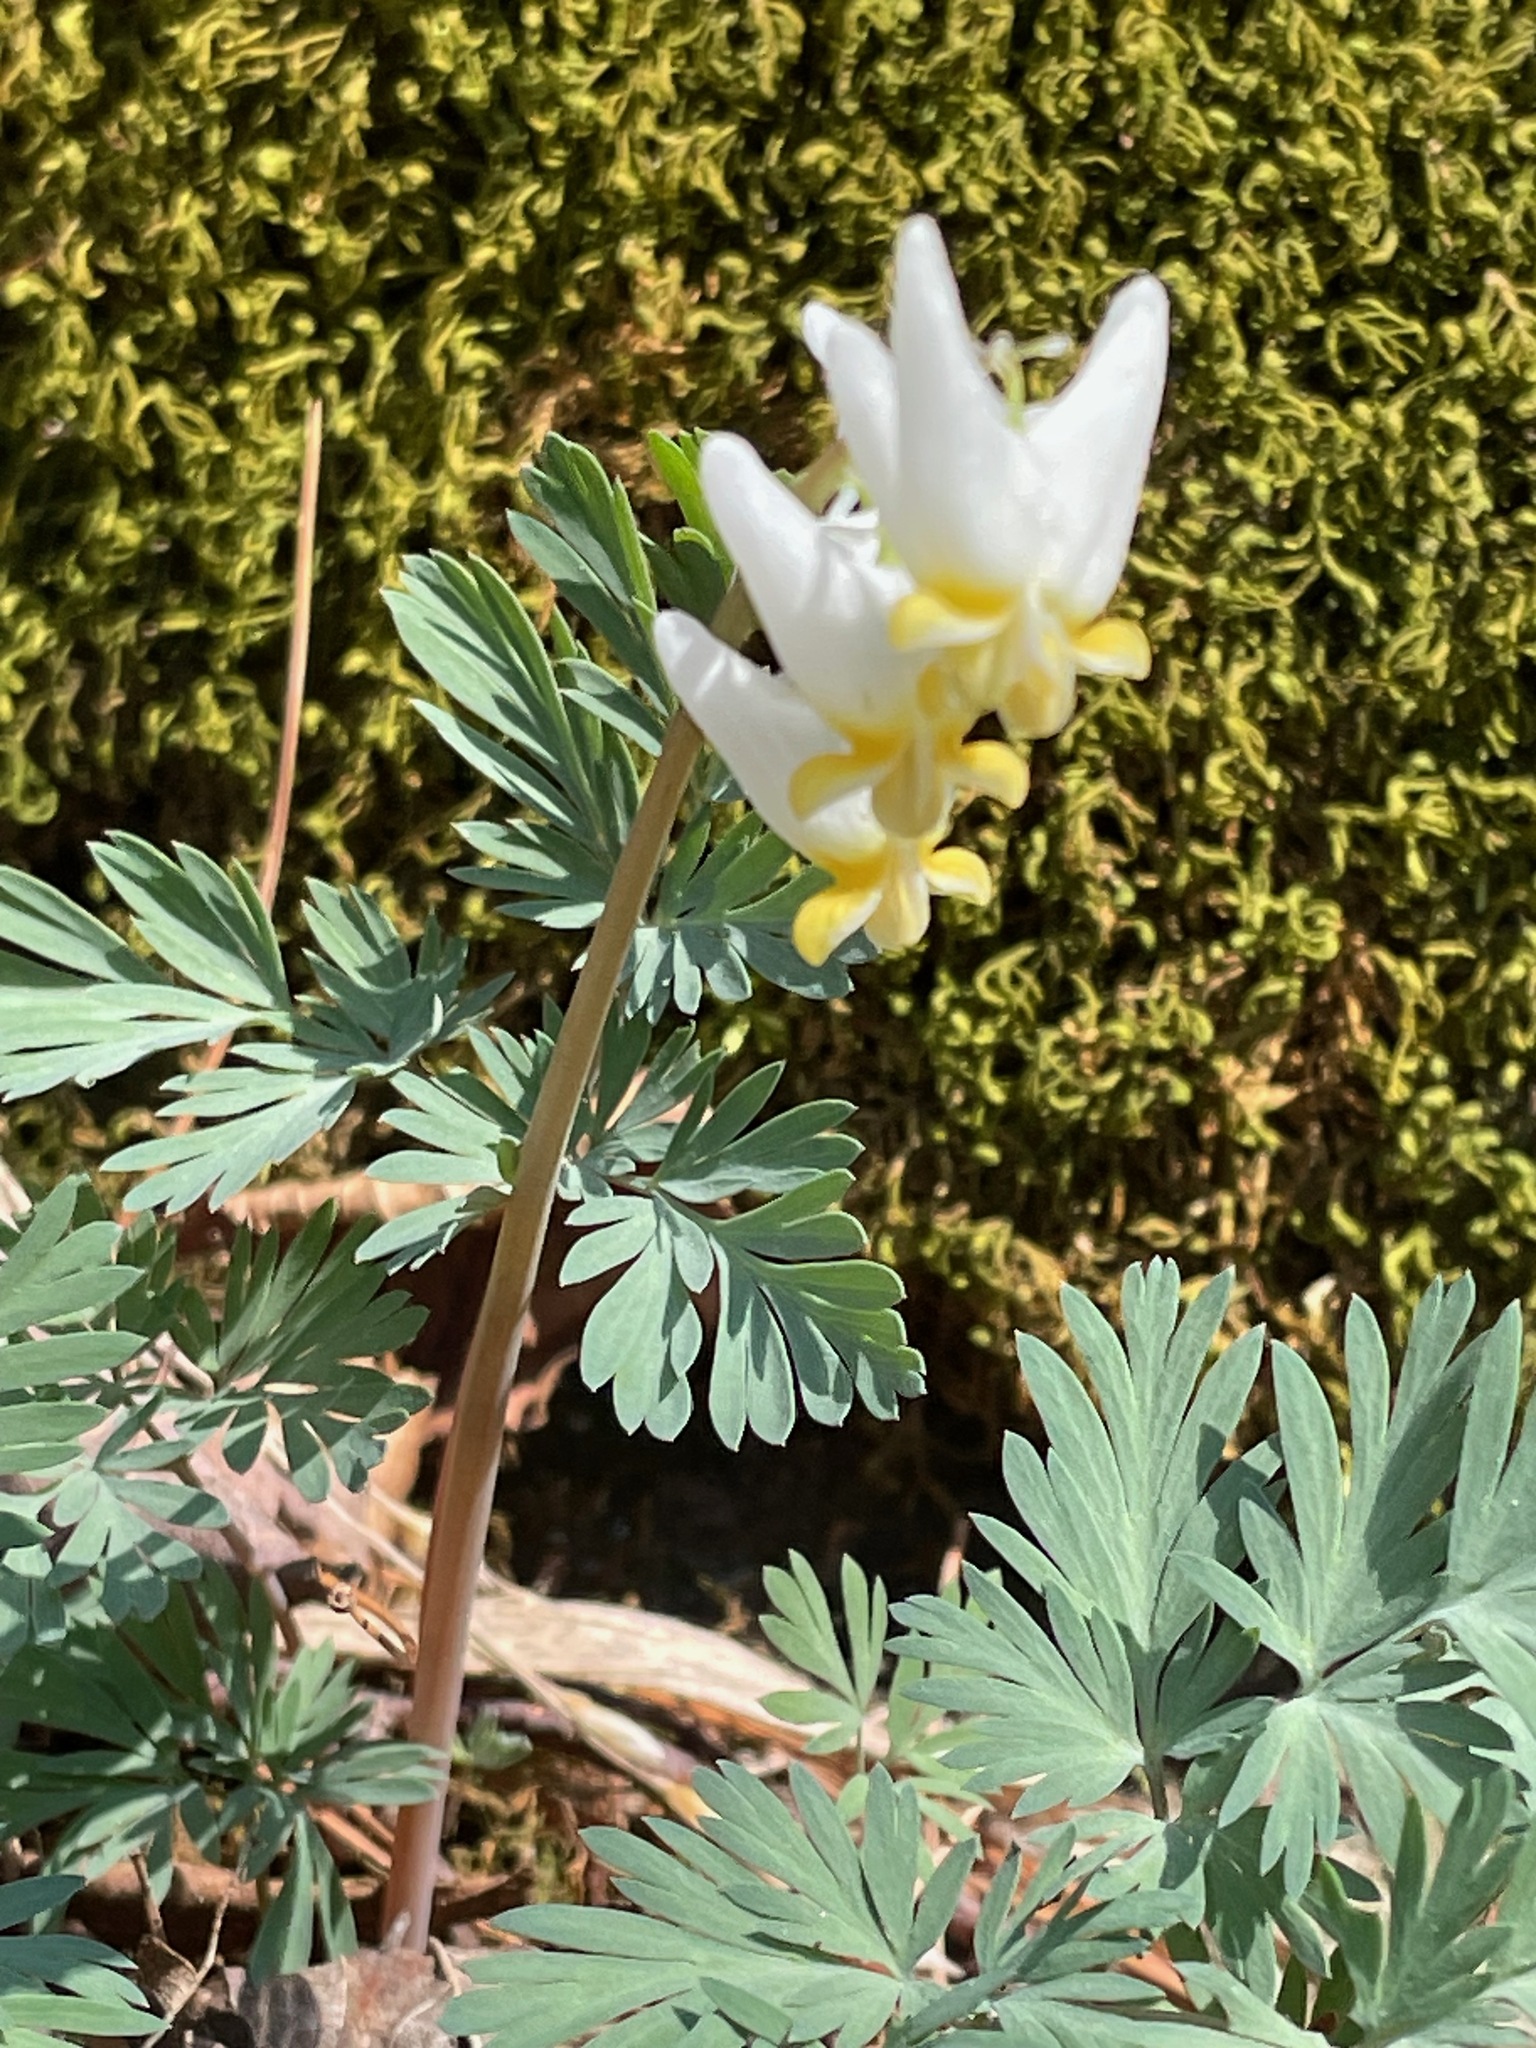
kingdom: Plantae
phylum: Tracheophyta
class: Magnoliopsida
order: Ranunculales
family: Papaveraceae
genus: Dicentra
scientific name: Dicentra cucullaria
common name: Dutchman's breeches
